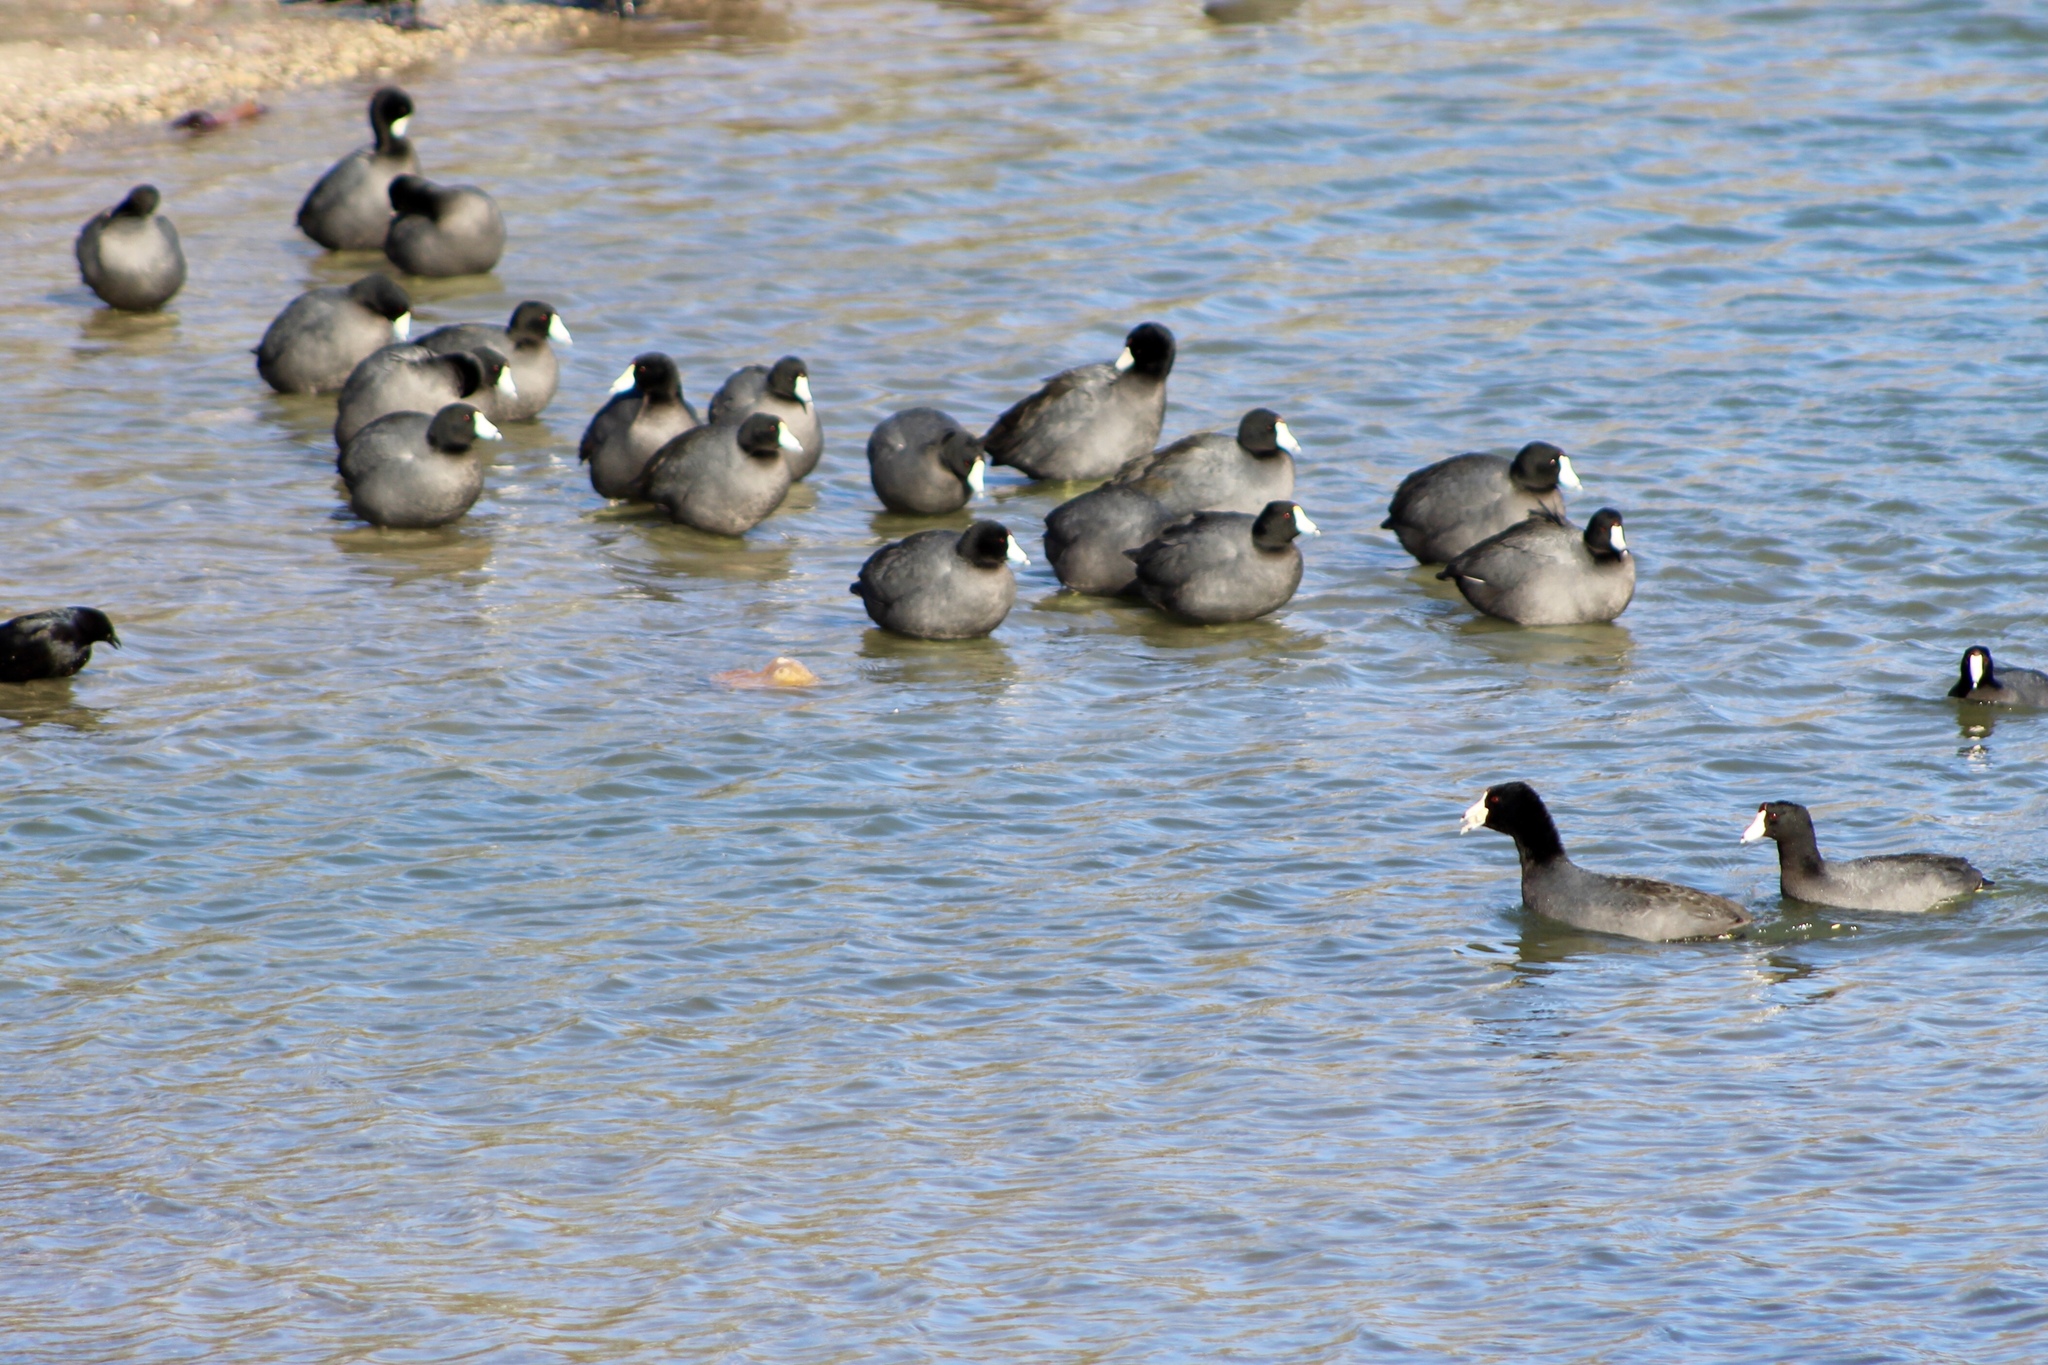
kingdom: Animalia
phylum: Chordata
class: Aves
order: Gruiformes
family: Rallidae
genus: Fulica
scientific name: Fulica americana
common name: American coot
